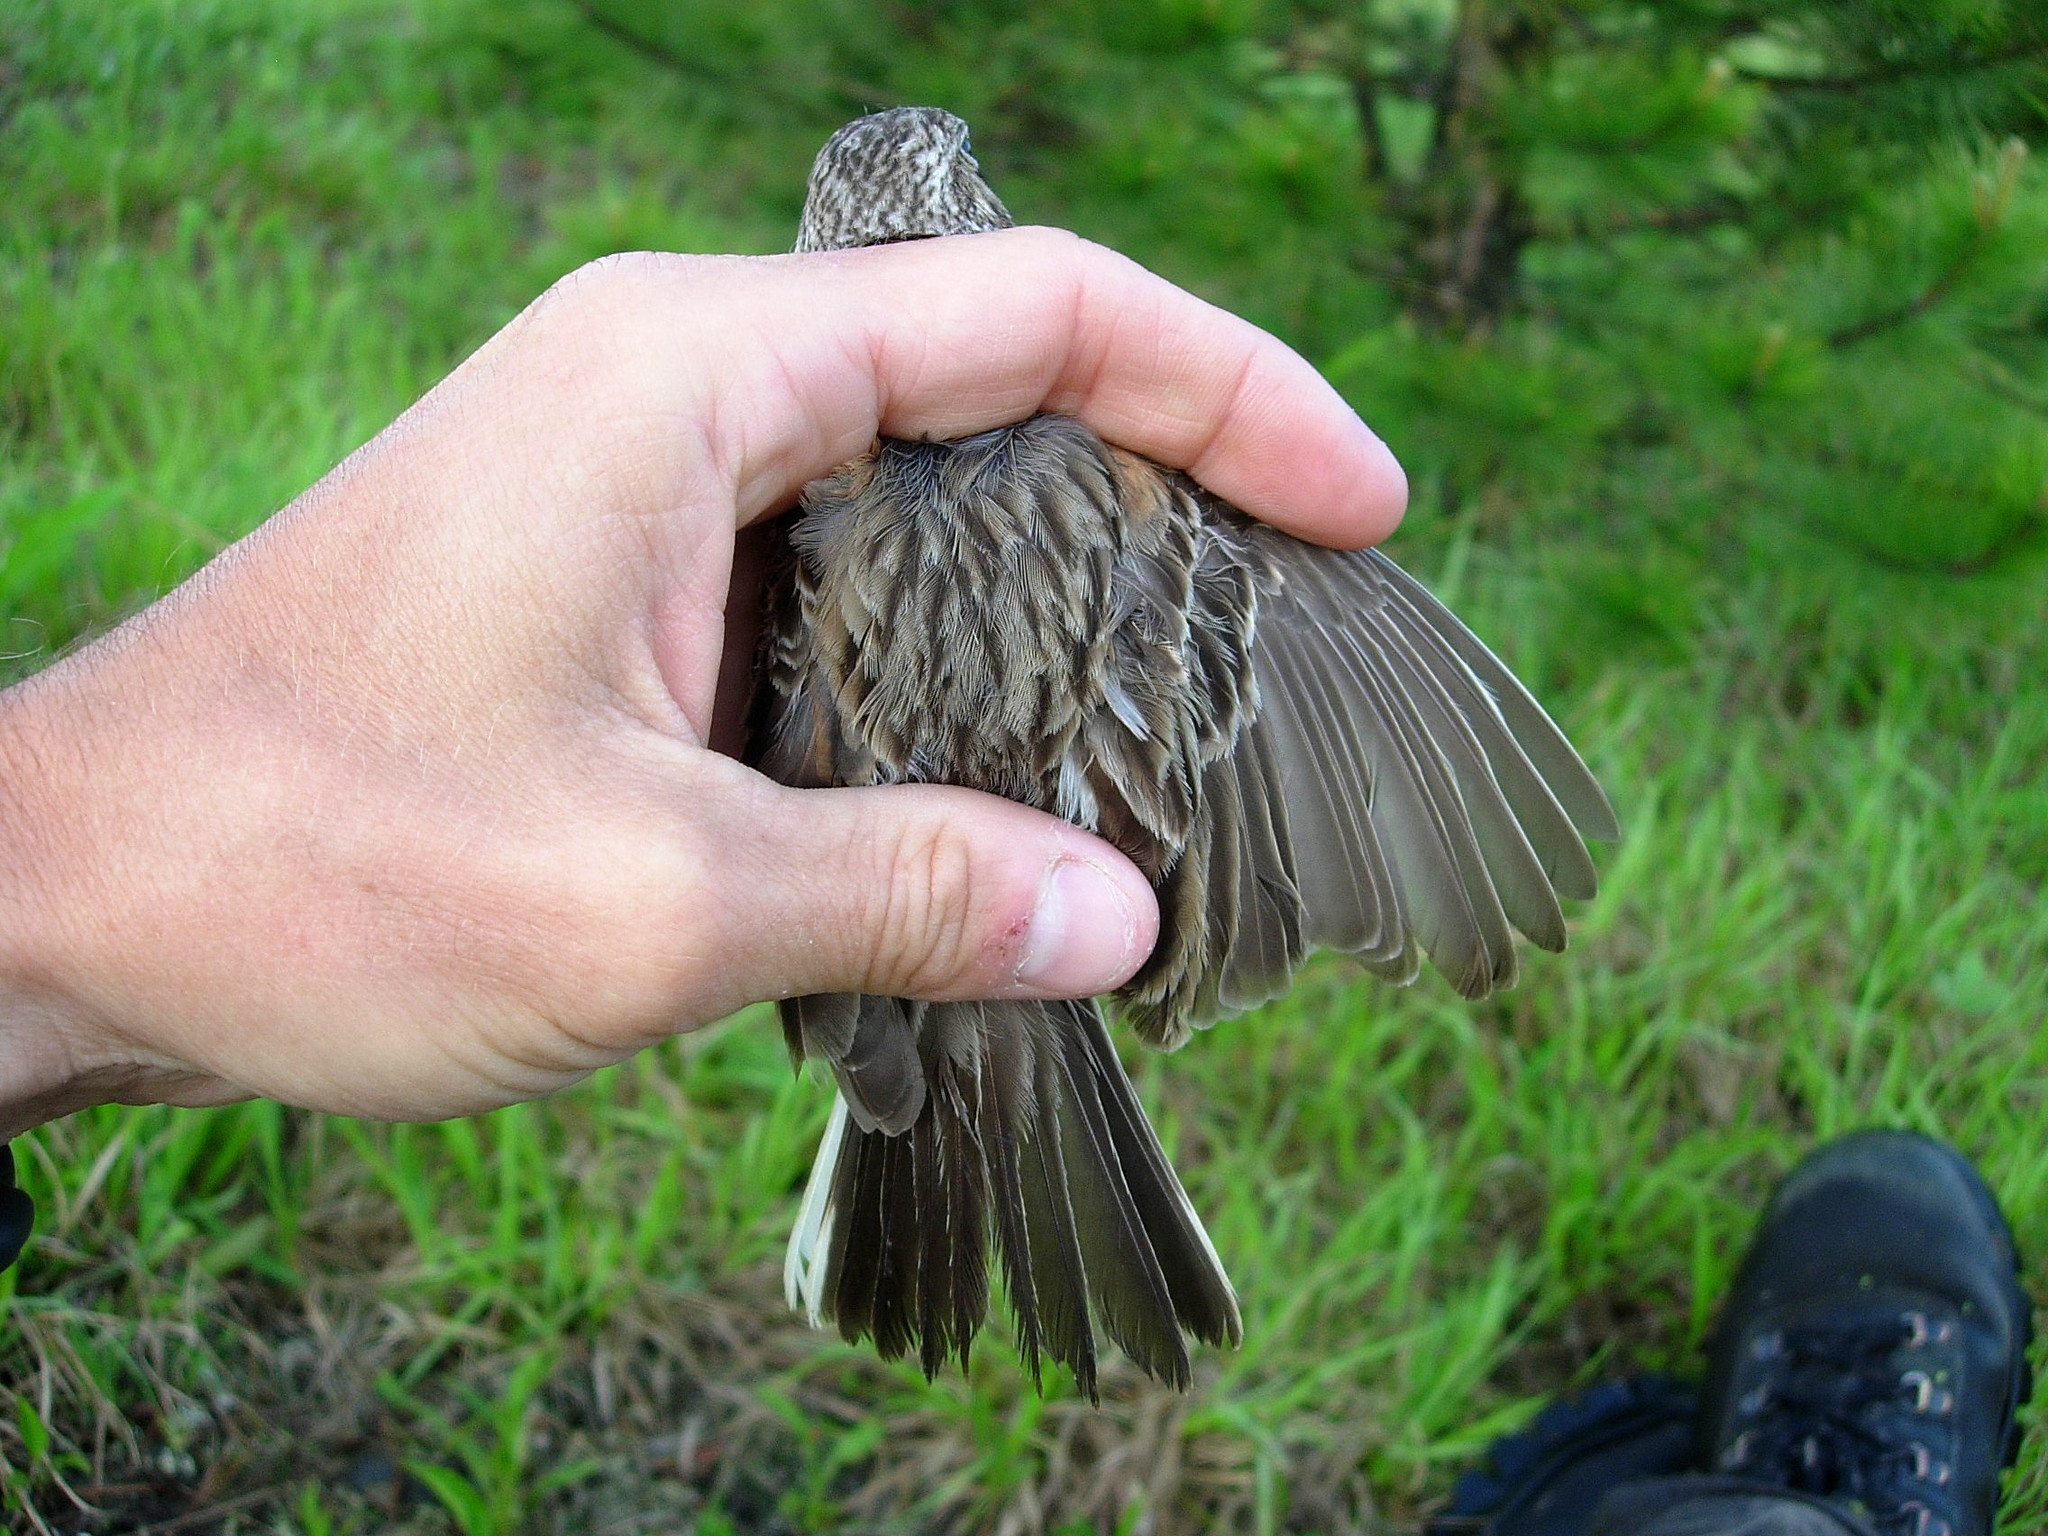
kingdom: Animalia
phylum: Chordata
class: Aves
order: Passeriformes
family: Passerellidae
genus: Pooecetes
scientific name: Pooecetes gramineus
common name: Vesper sparrow
